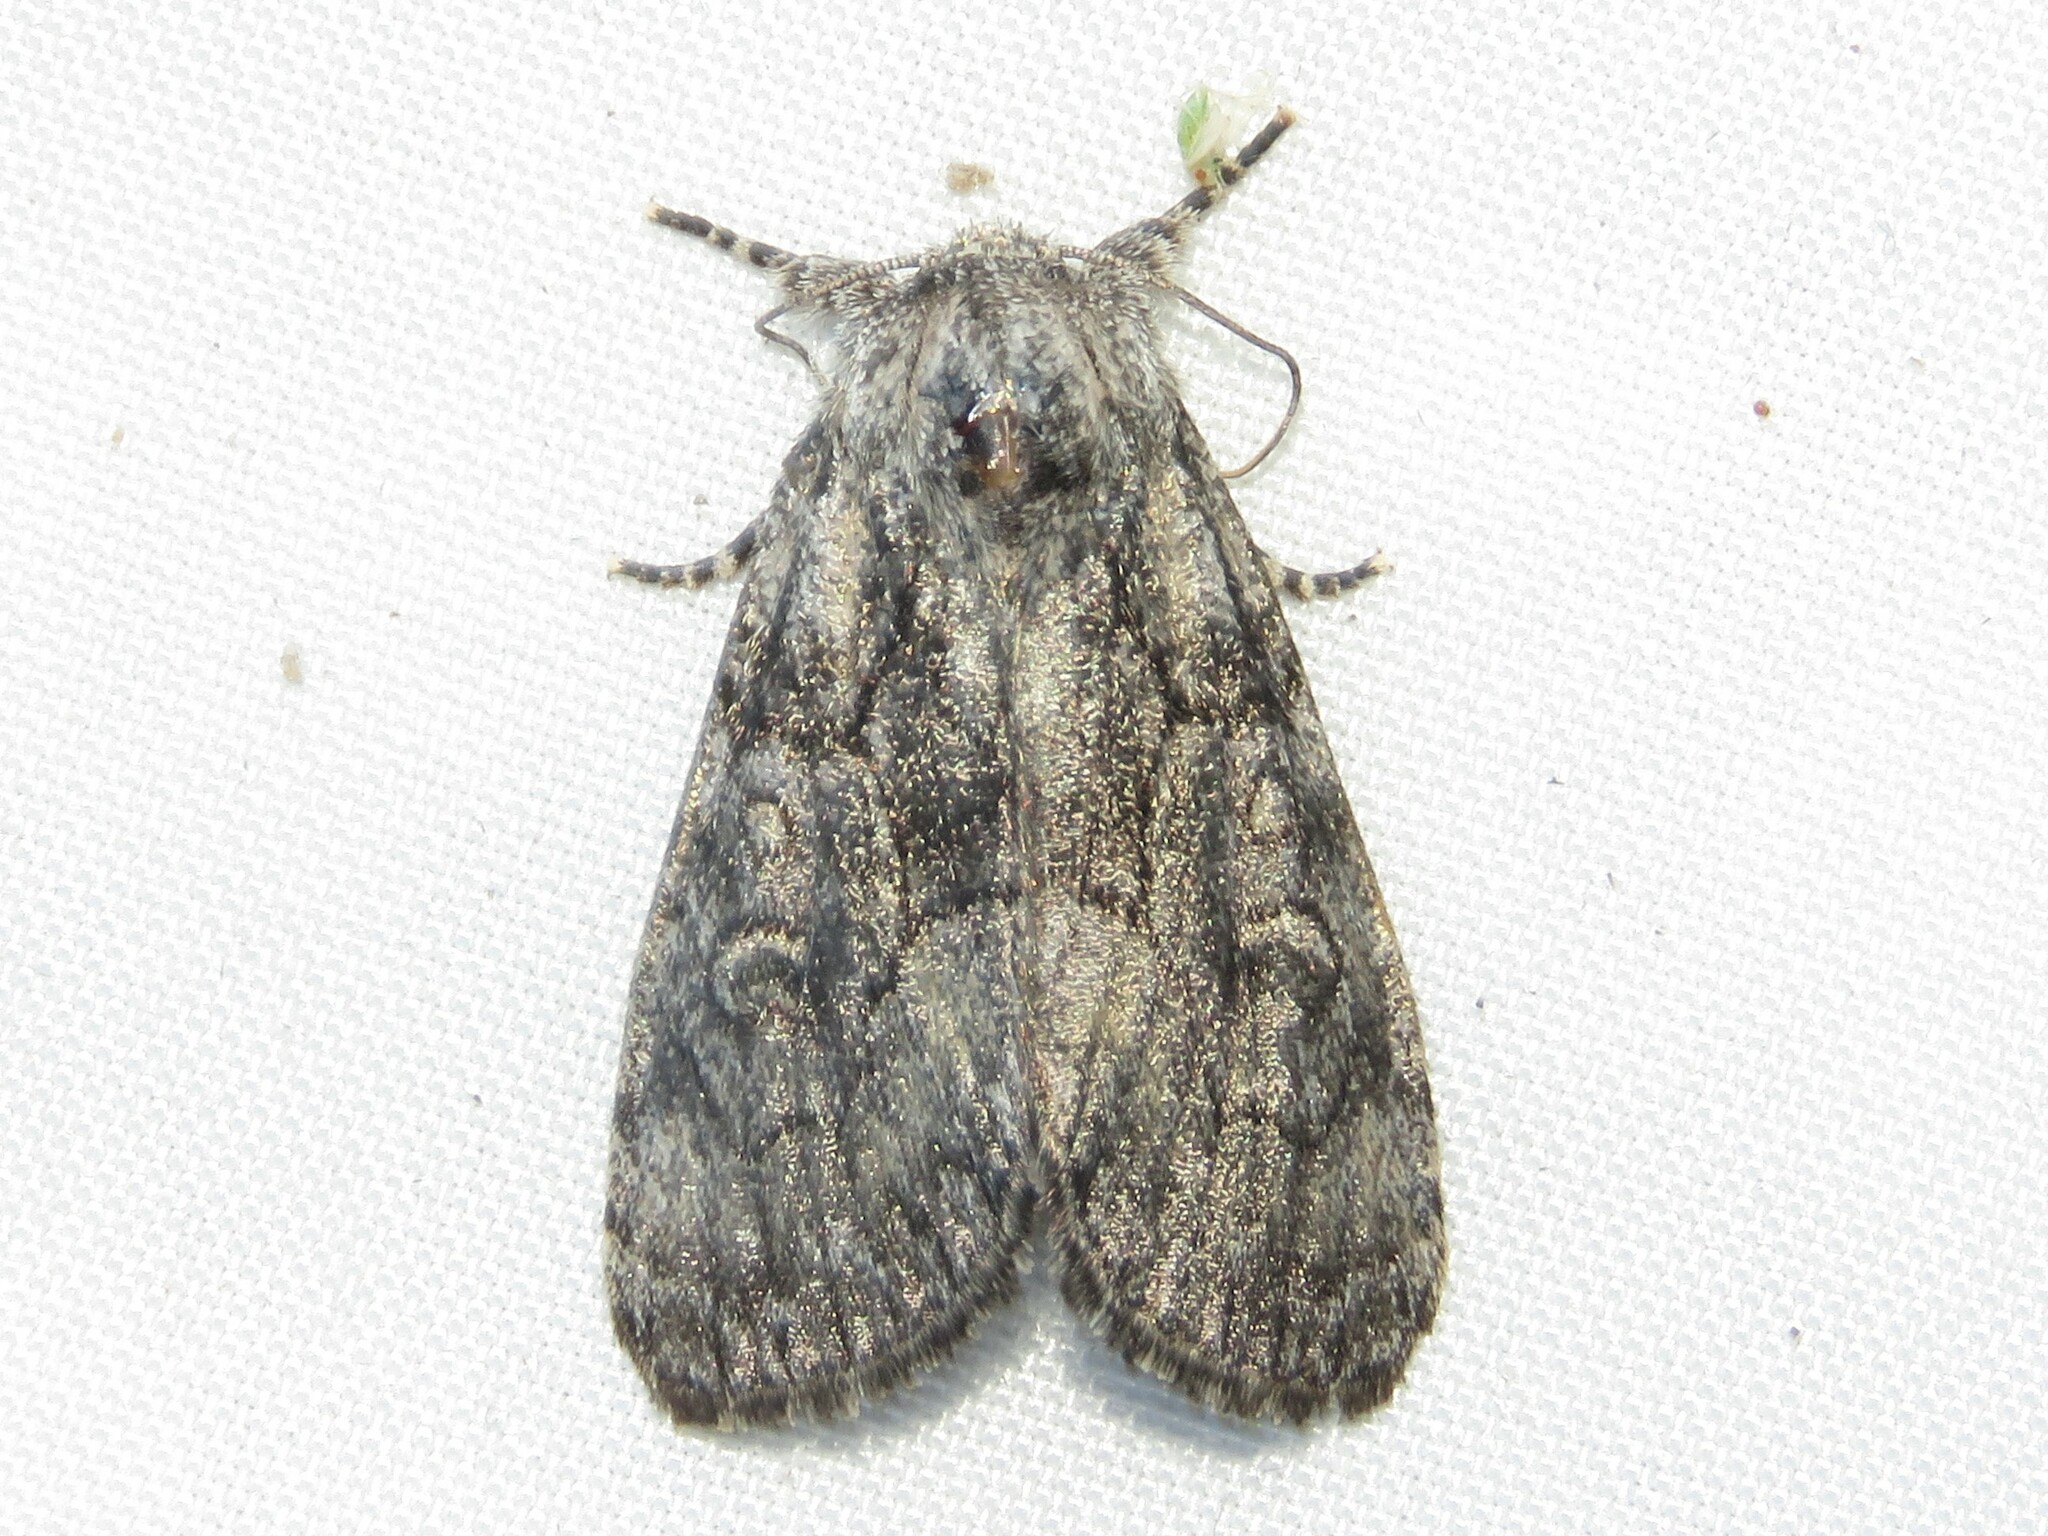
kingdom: Animalia
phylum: Arthropoda
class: Insecta
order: Lepidoptera
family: Noctuidae
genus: Raphia
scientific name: Raphia frater
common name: Brother
